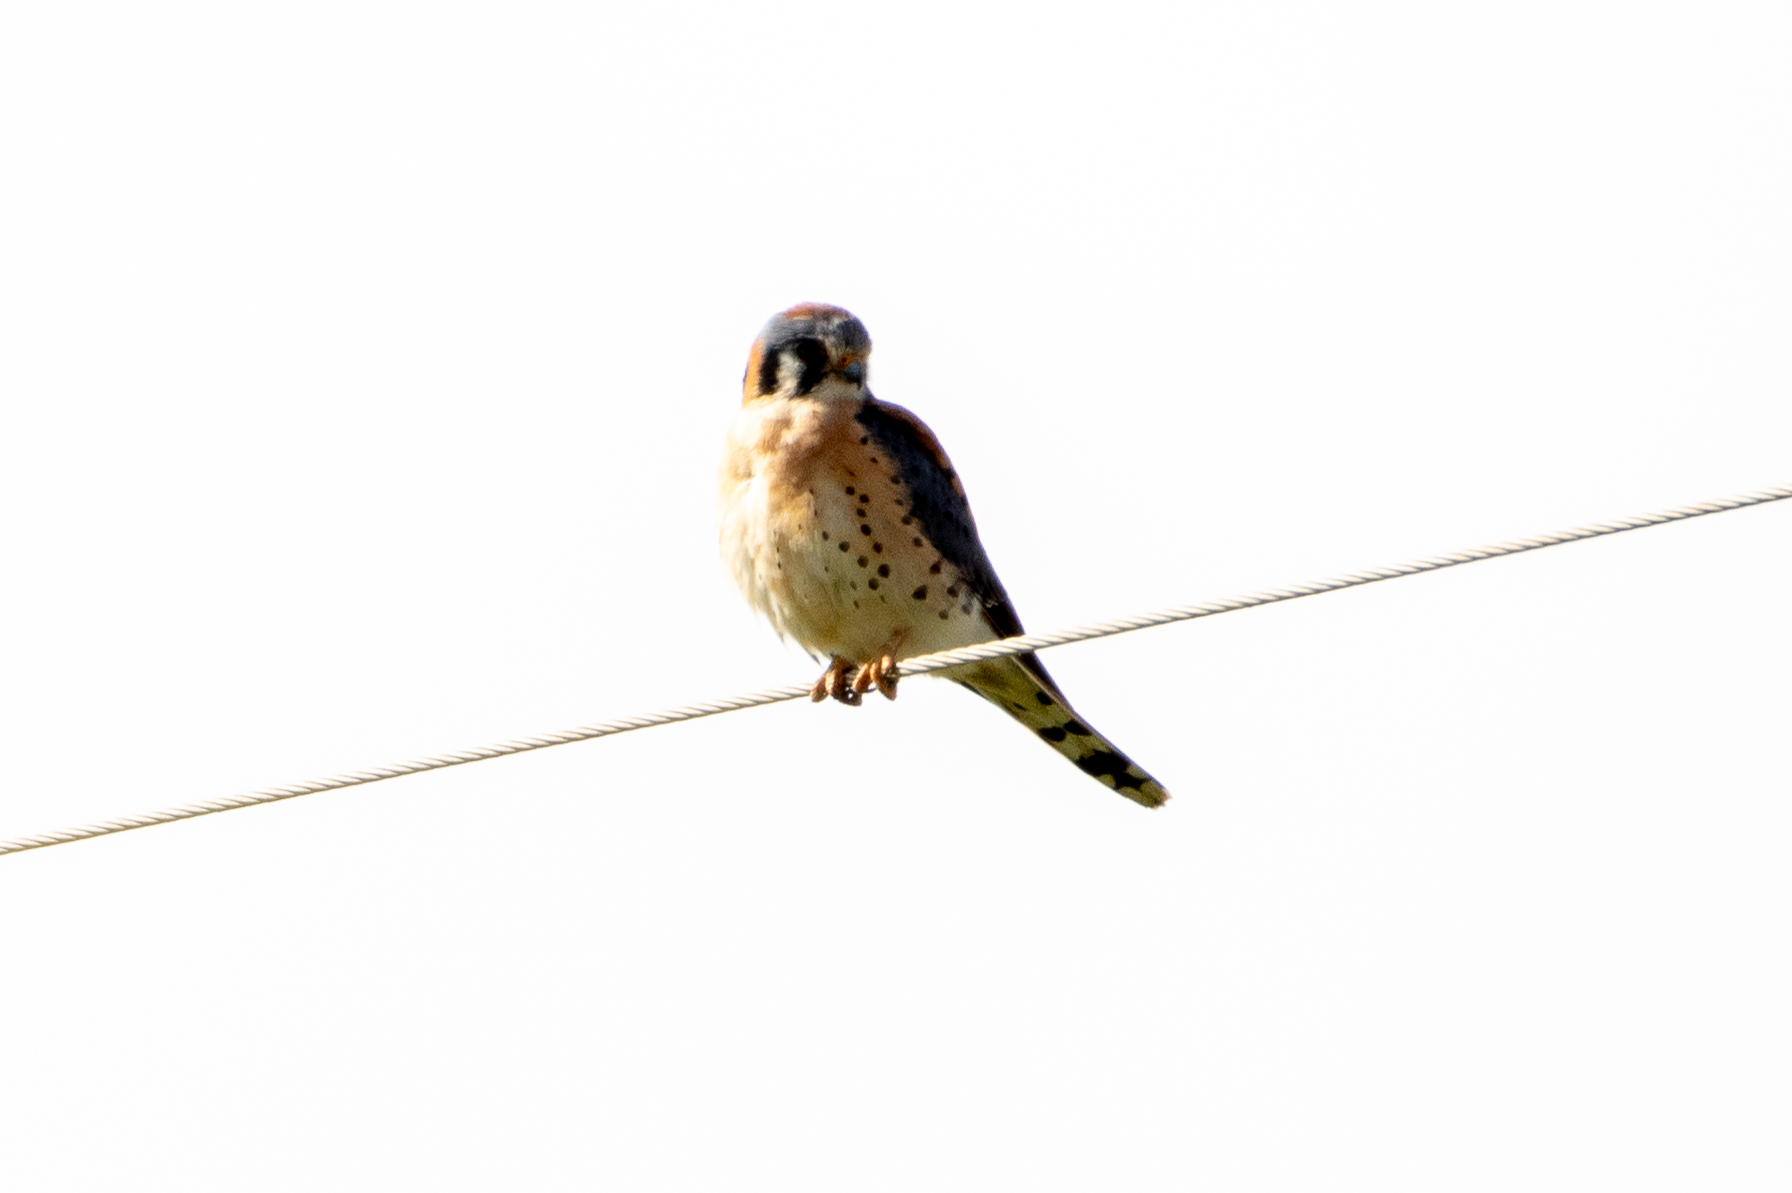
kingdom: Animalia
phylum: Chordata
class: Aves
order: Falconiformes
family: Falconidae
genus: Falco
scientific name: Falco sparverius
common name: American kestrel
